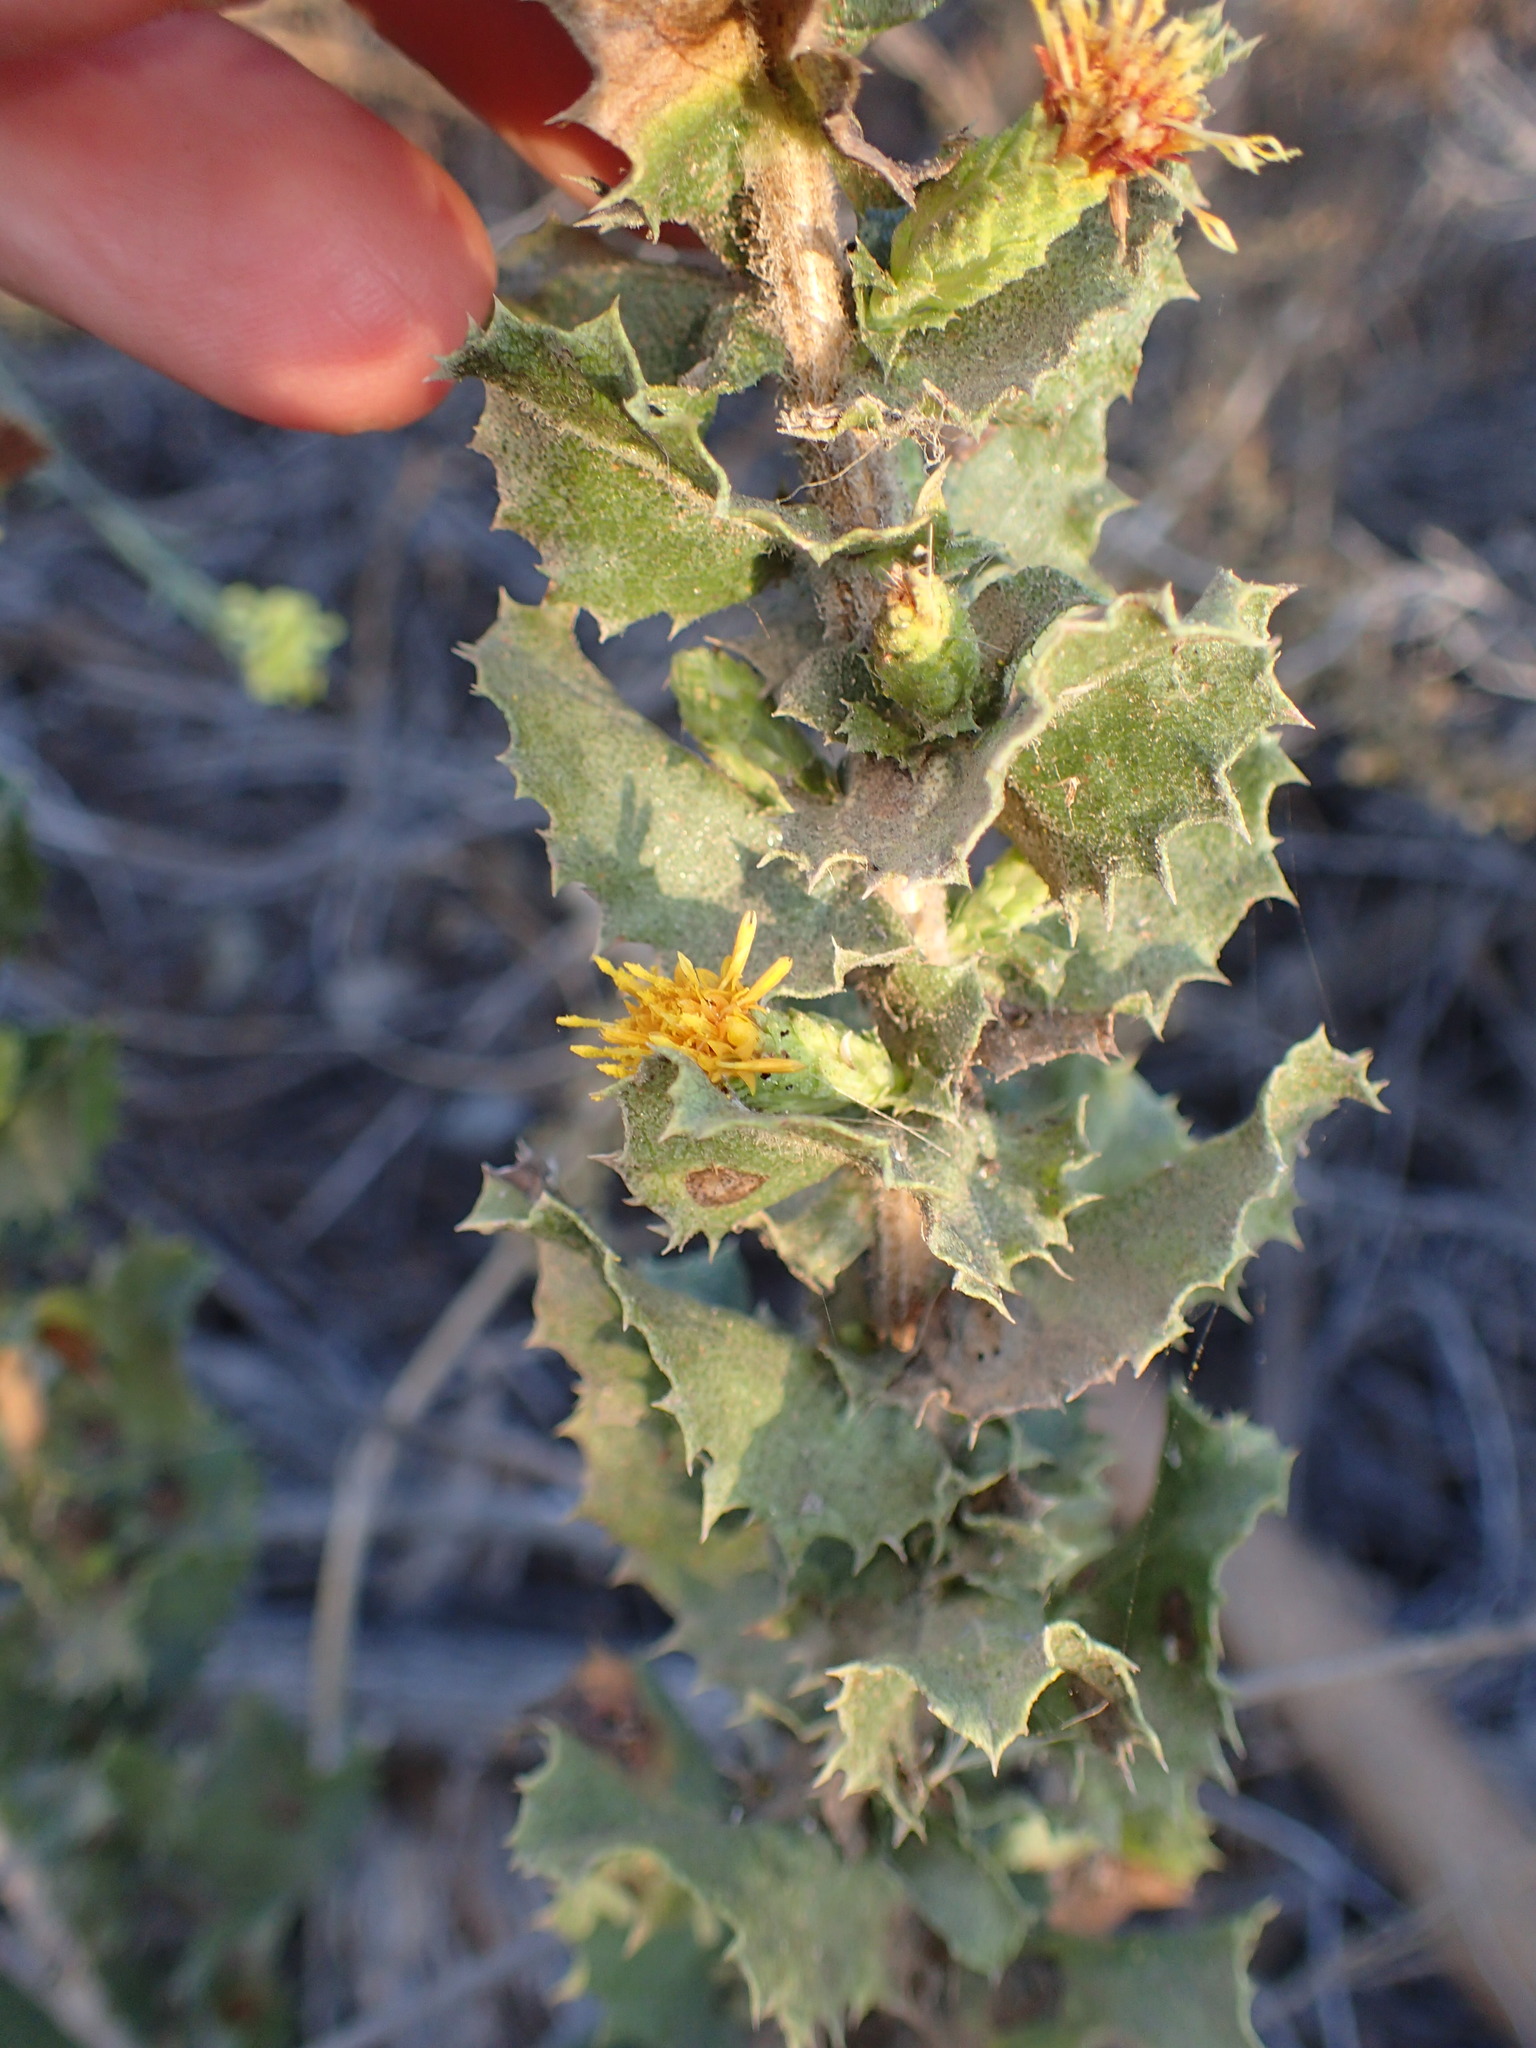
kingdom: Plantae
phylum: Tracheophyta
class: Magnoliopsida
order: Asterales
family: Asteraceae
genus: Hazardia
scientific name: Hazardia squarrosa
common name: Saw-tooth goldenbush
